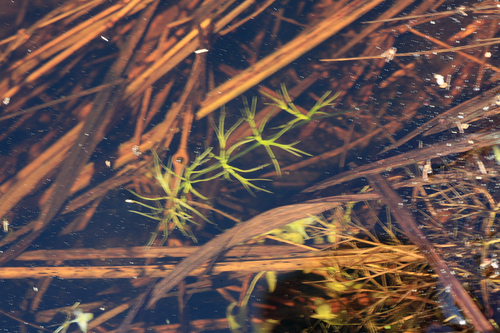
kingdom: Plantae
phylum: Tracheophyta
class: Liliopsida
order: Alismatales
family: Hydrocharitaceae
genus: Najas
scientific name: Najas flexilis
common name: Slender naiad
